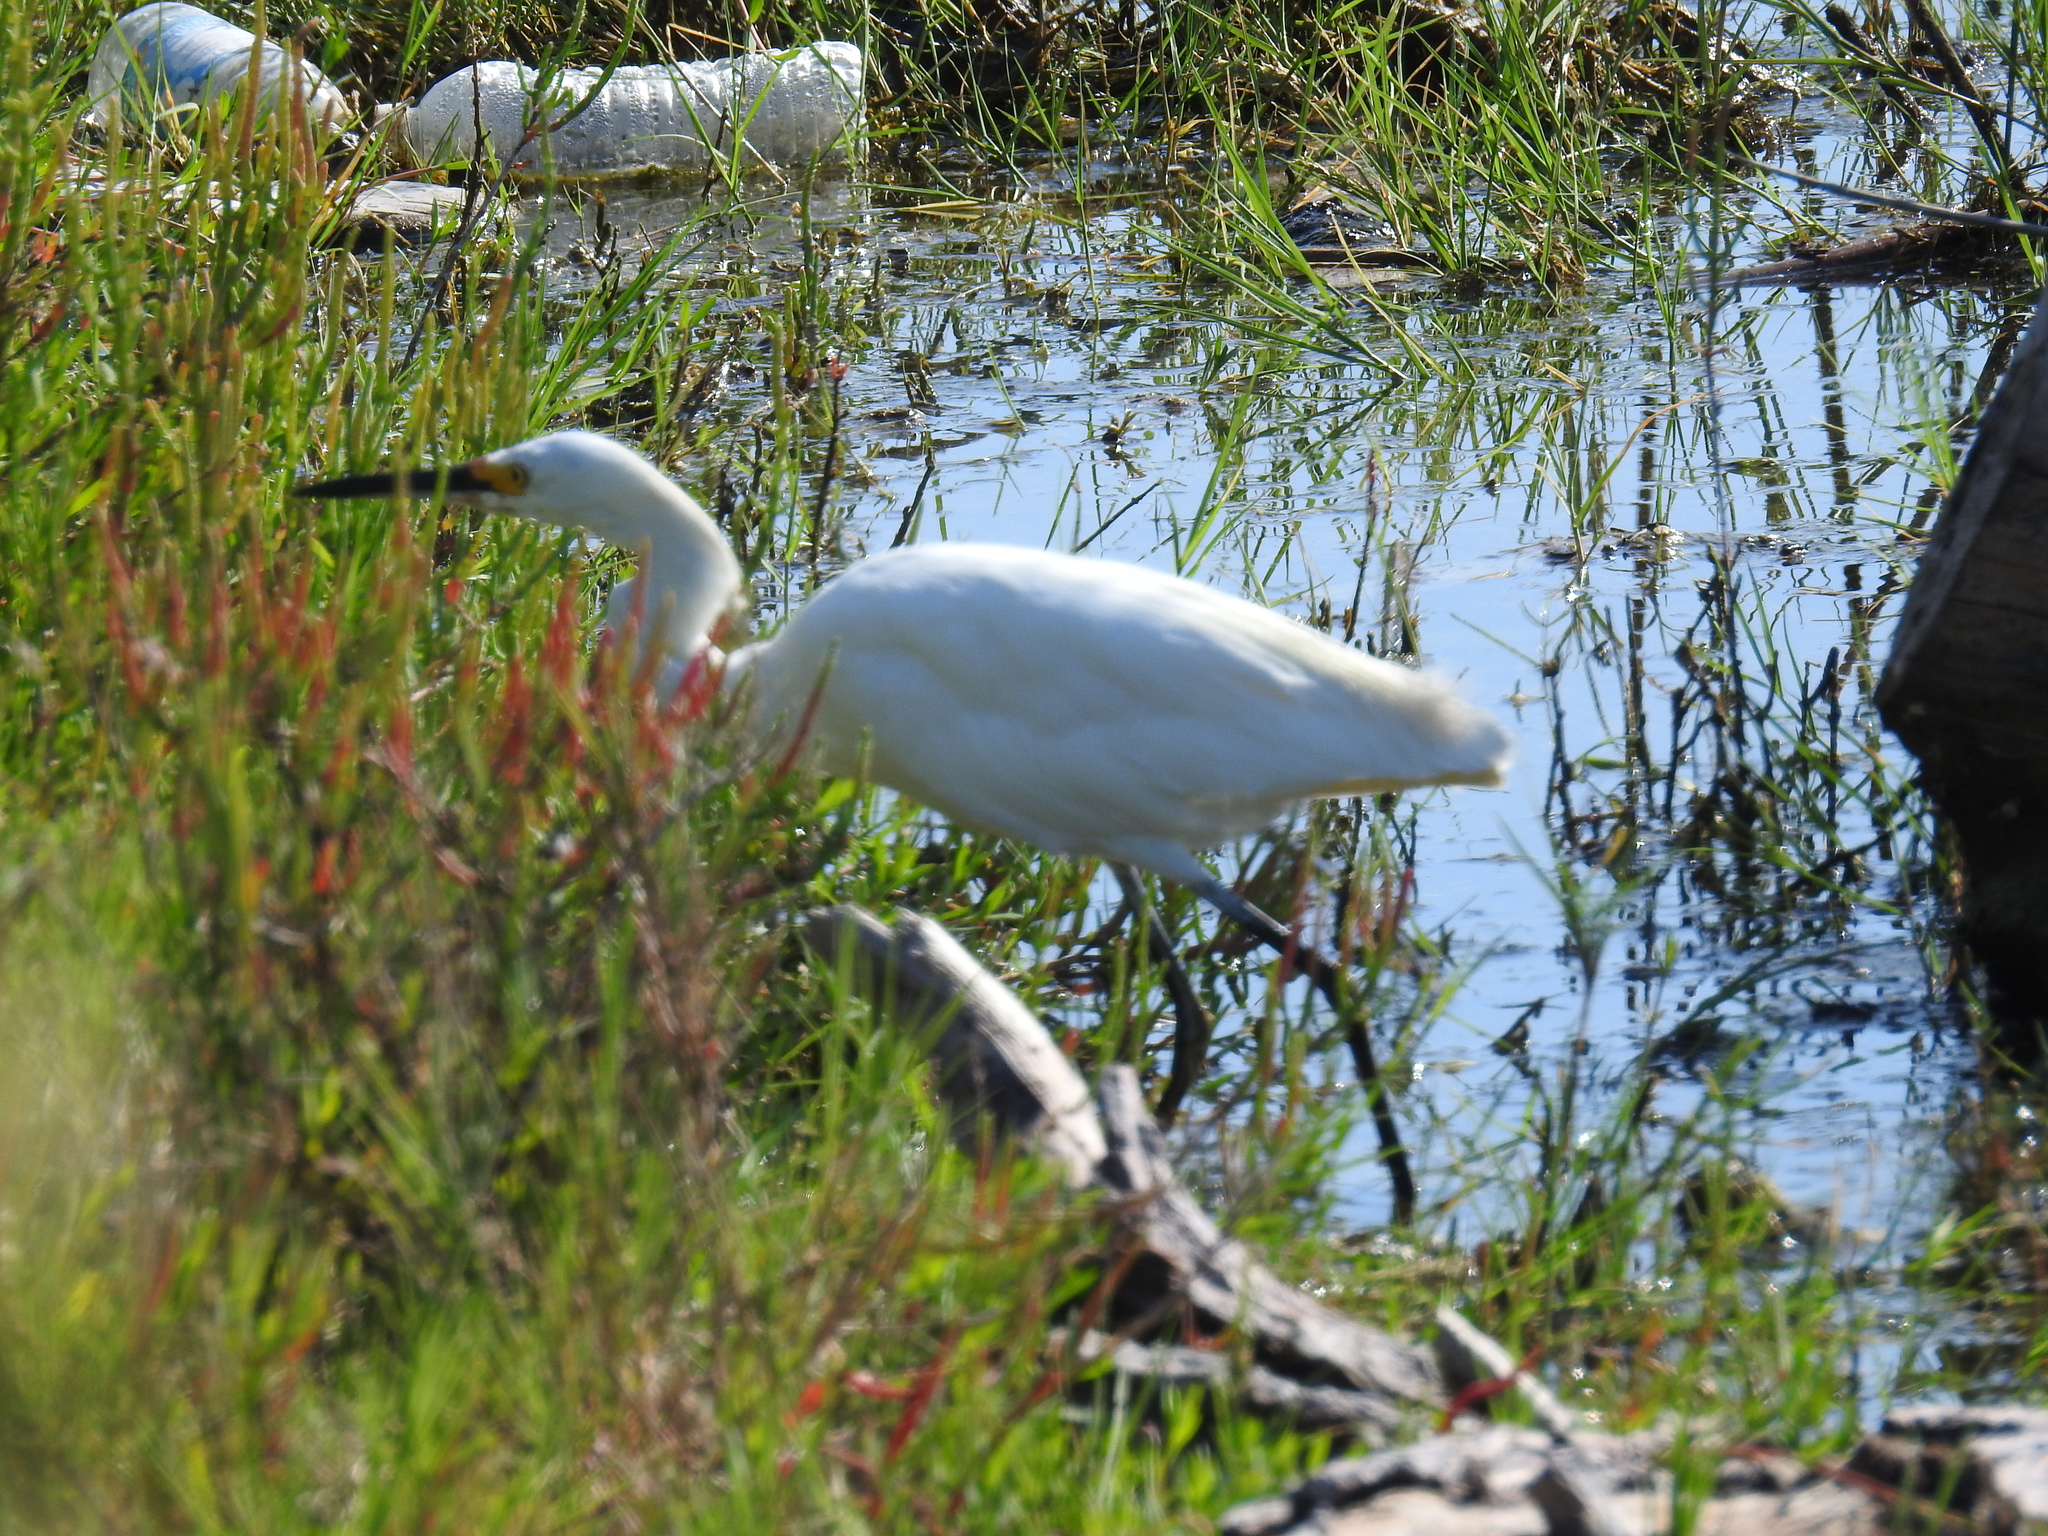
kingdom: Animalia
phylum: Chordata
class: Aves
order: Pelecaniformes
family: Ardeidae
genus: Egretta
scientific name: Egretta thula
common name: Snowy egret
